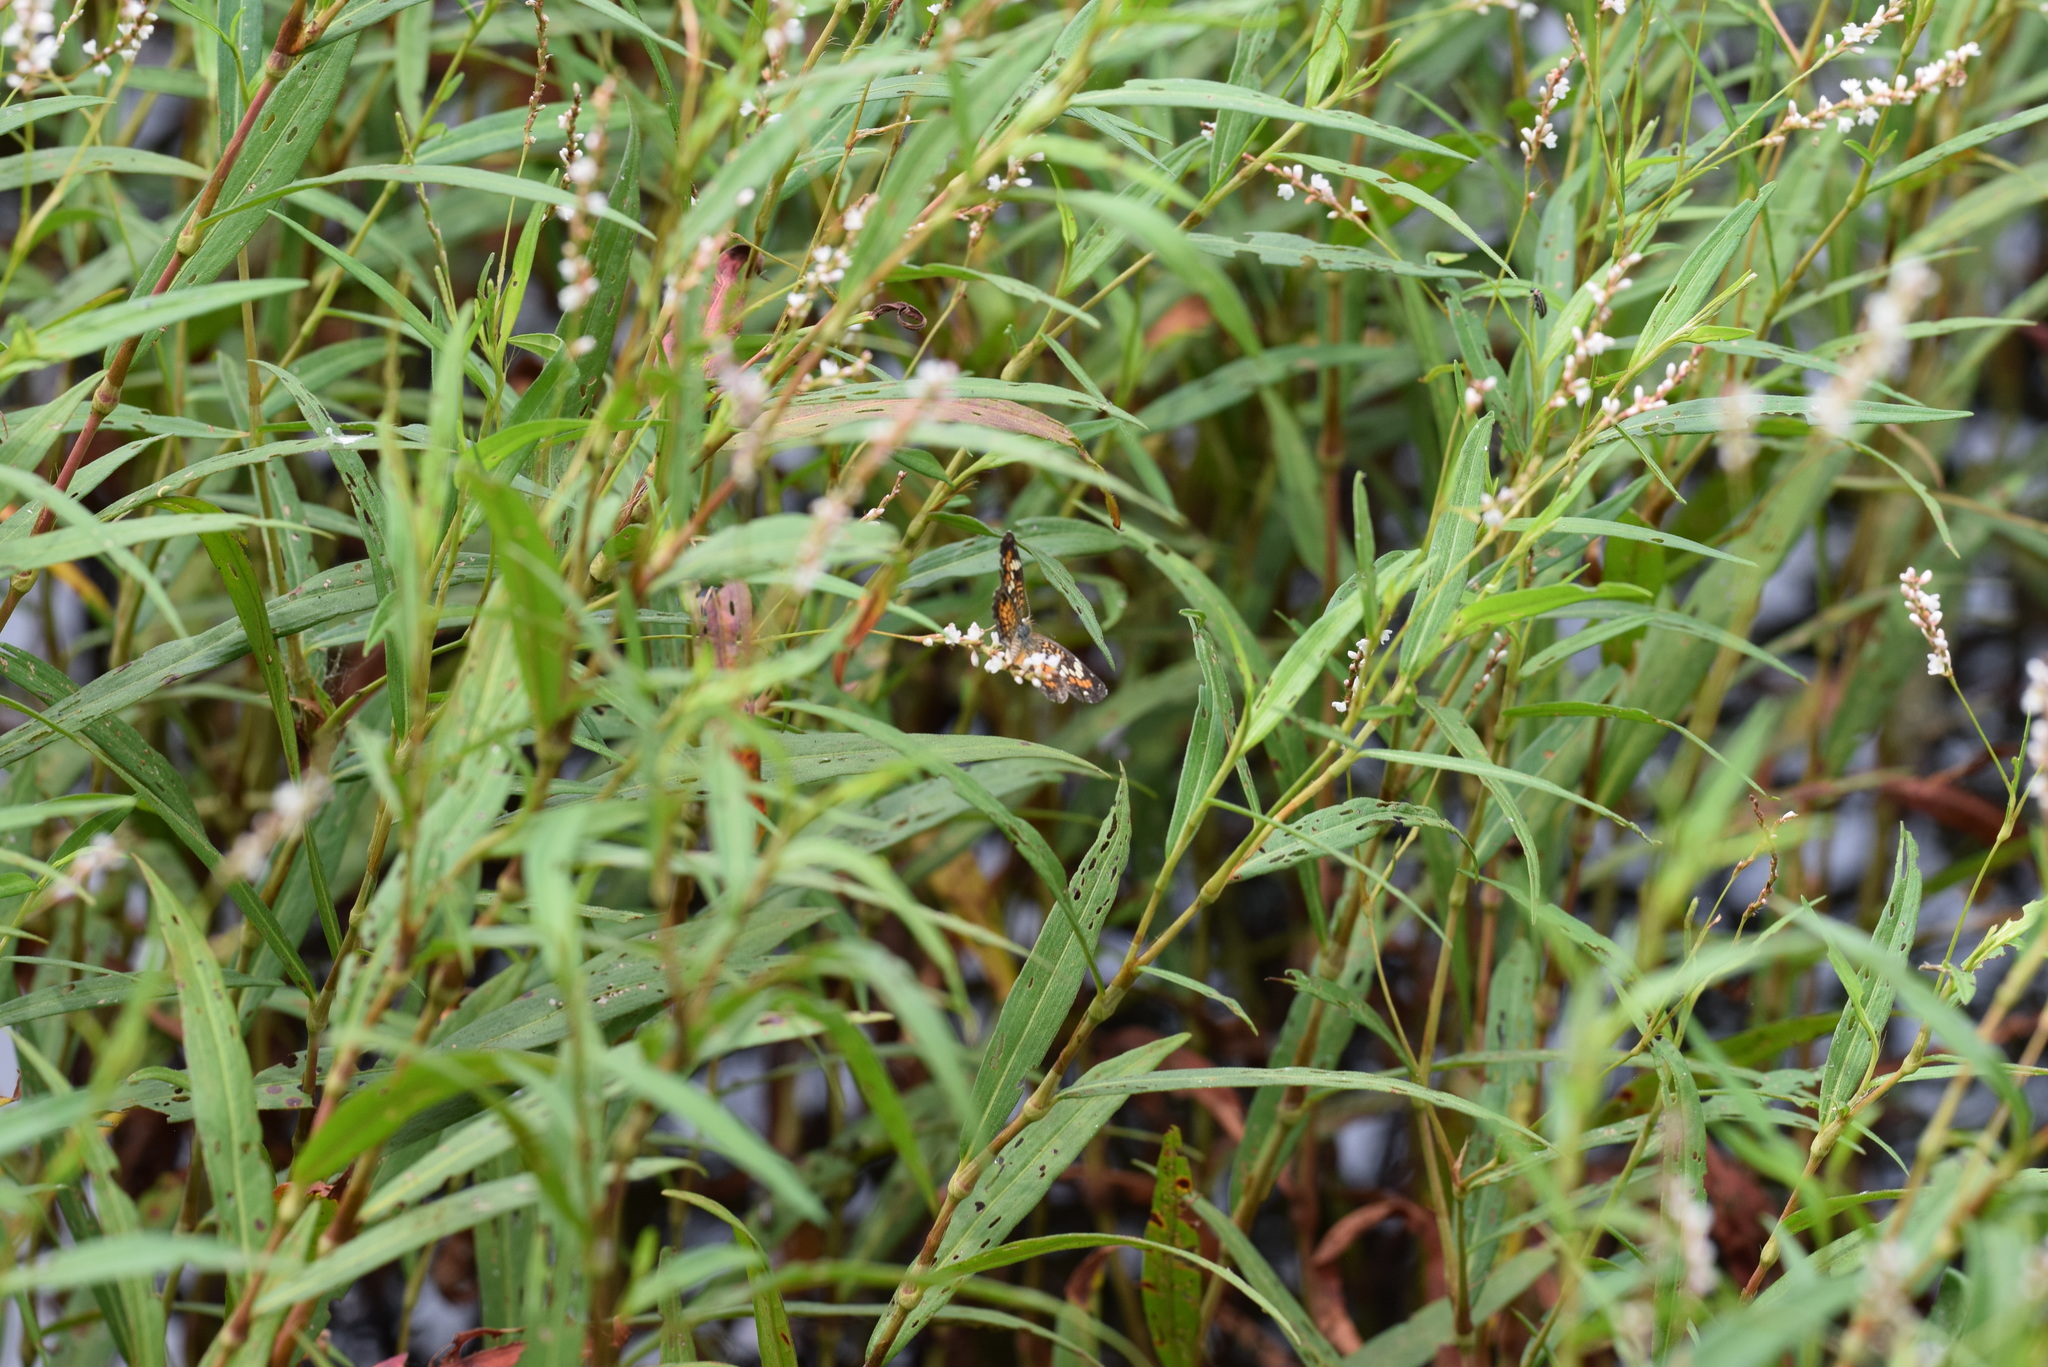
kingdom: Animalia
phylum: Arthropoda
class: Insecta
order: Lepidoptera
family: Nymphalidae
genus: Phyciodes
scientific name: Phyciodes phaon
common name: Phaon crescent
